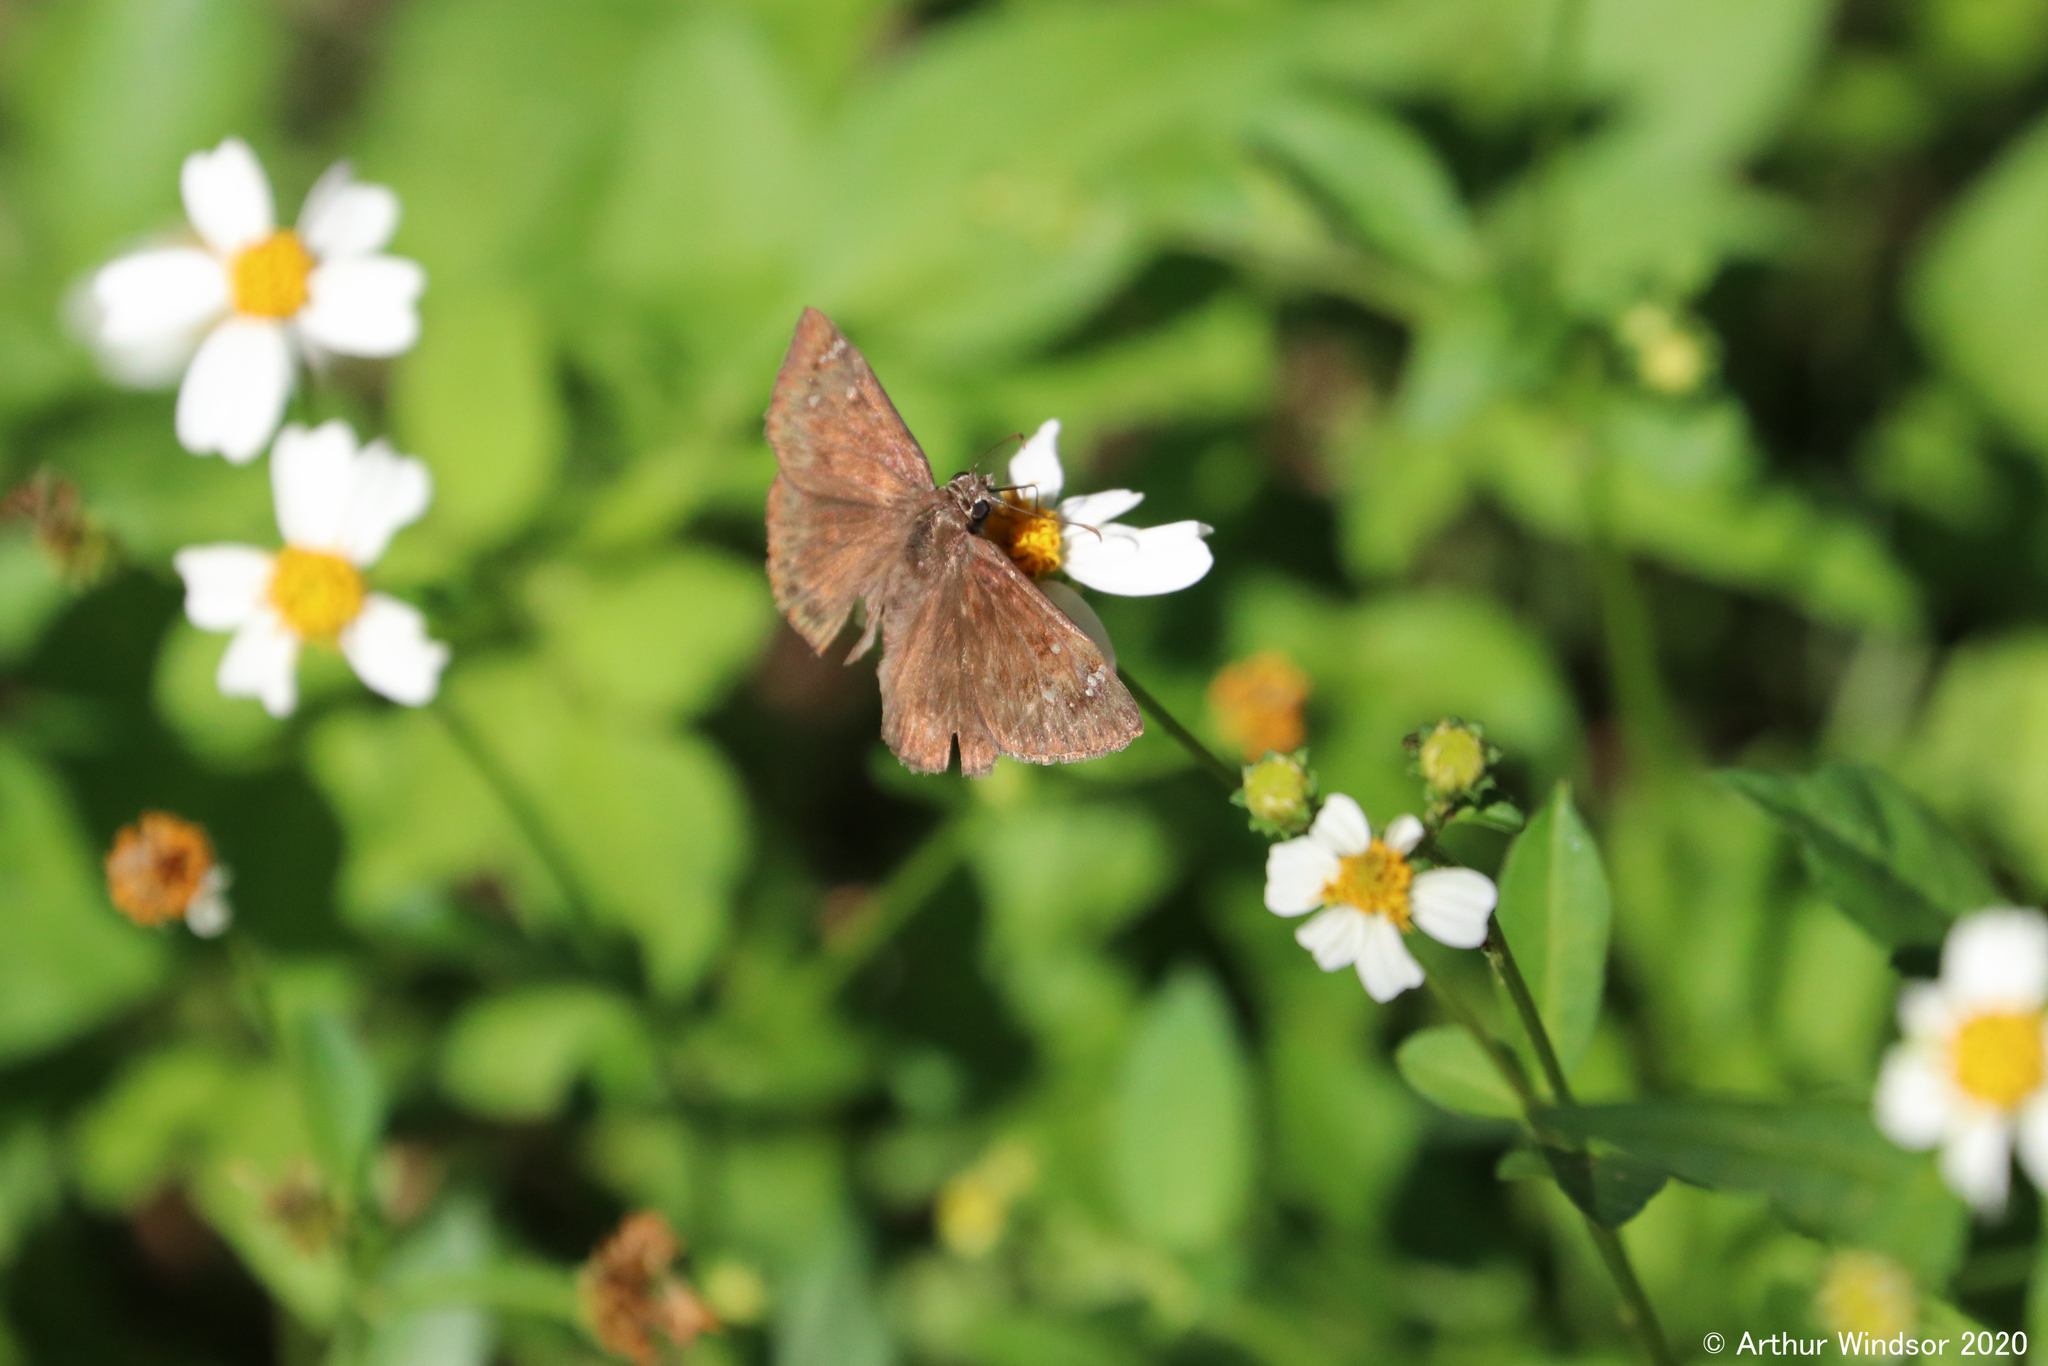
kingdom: Animalia
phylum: Arthropoda
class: Insecta
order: Lepidoptera
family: Hesperiidae
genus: Erynnis
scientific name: Erynnis horatius
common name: Horace's duskywing
